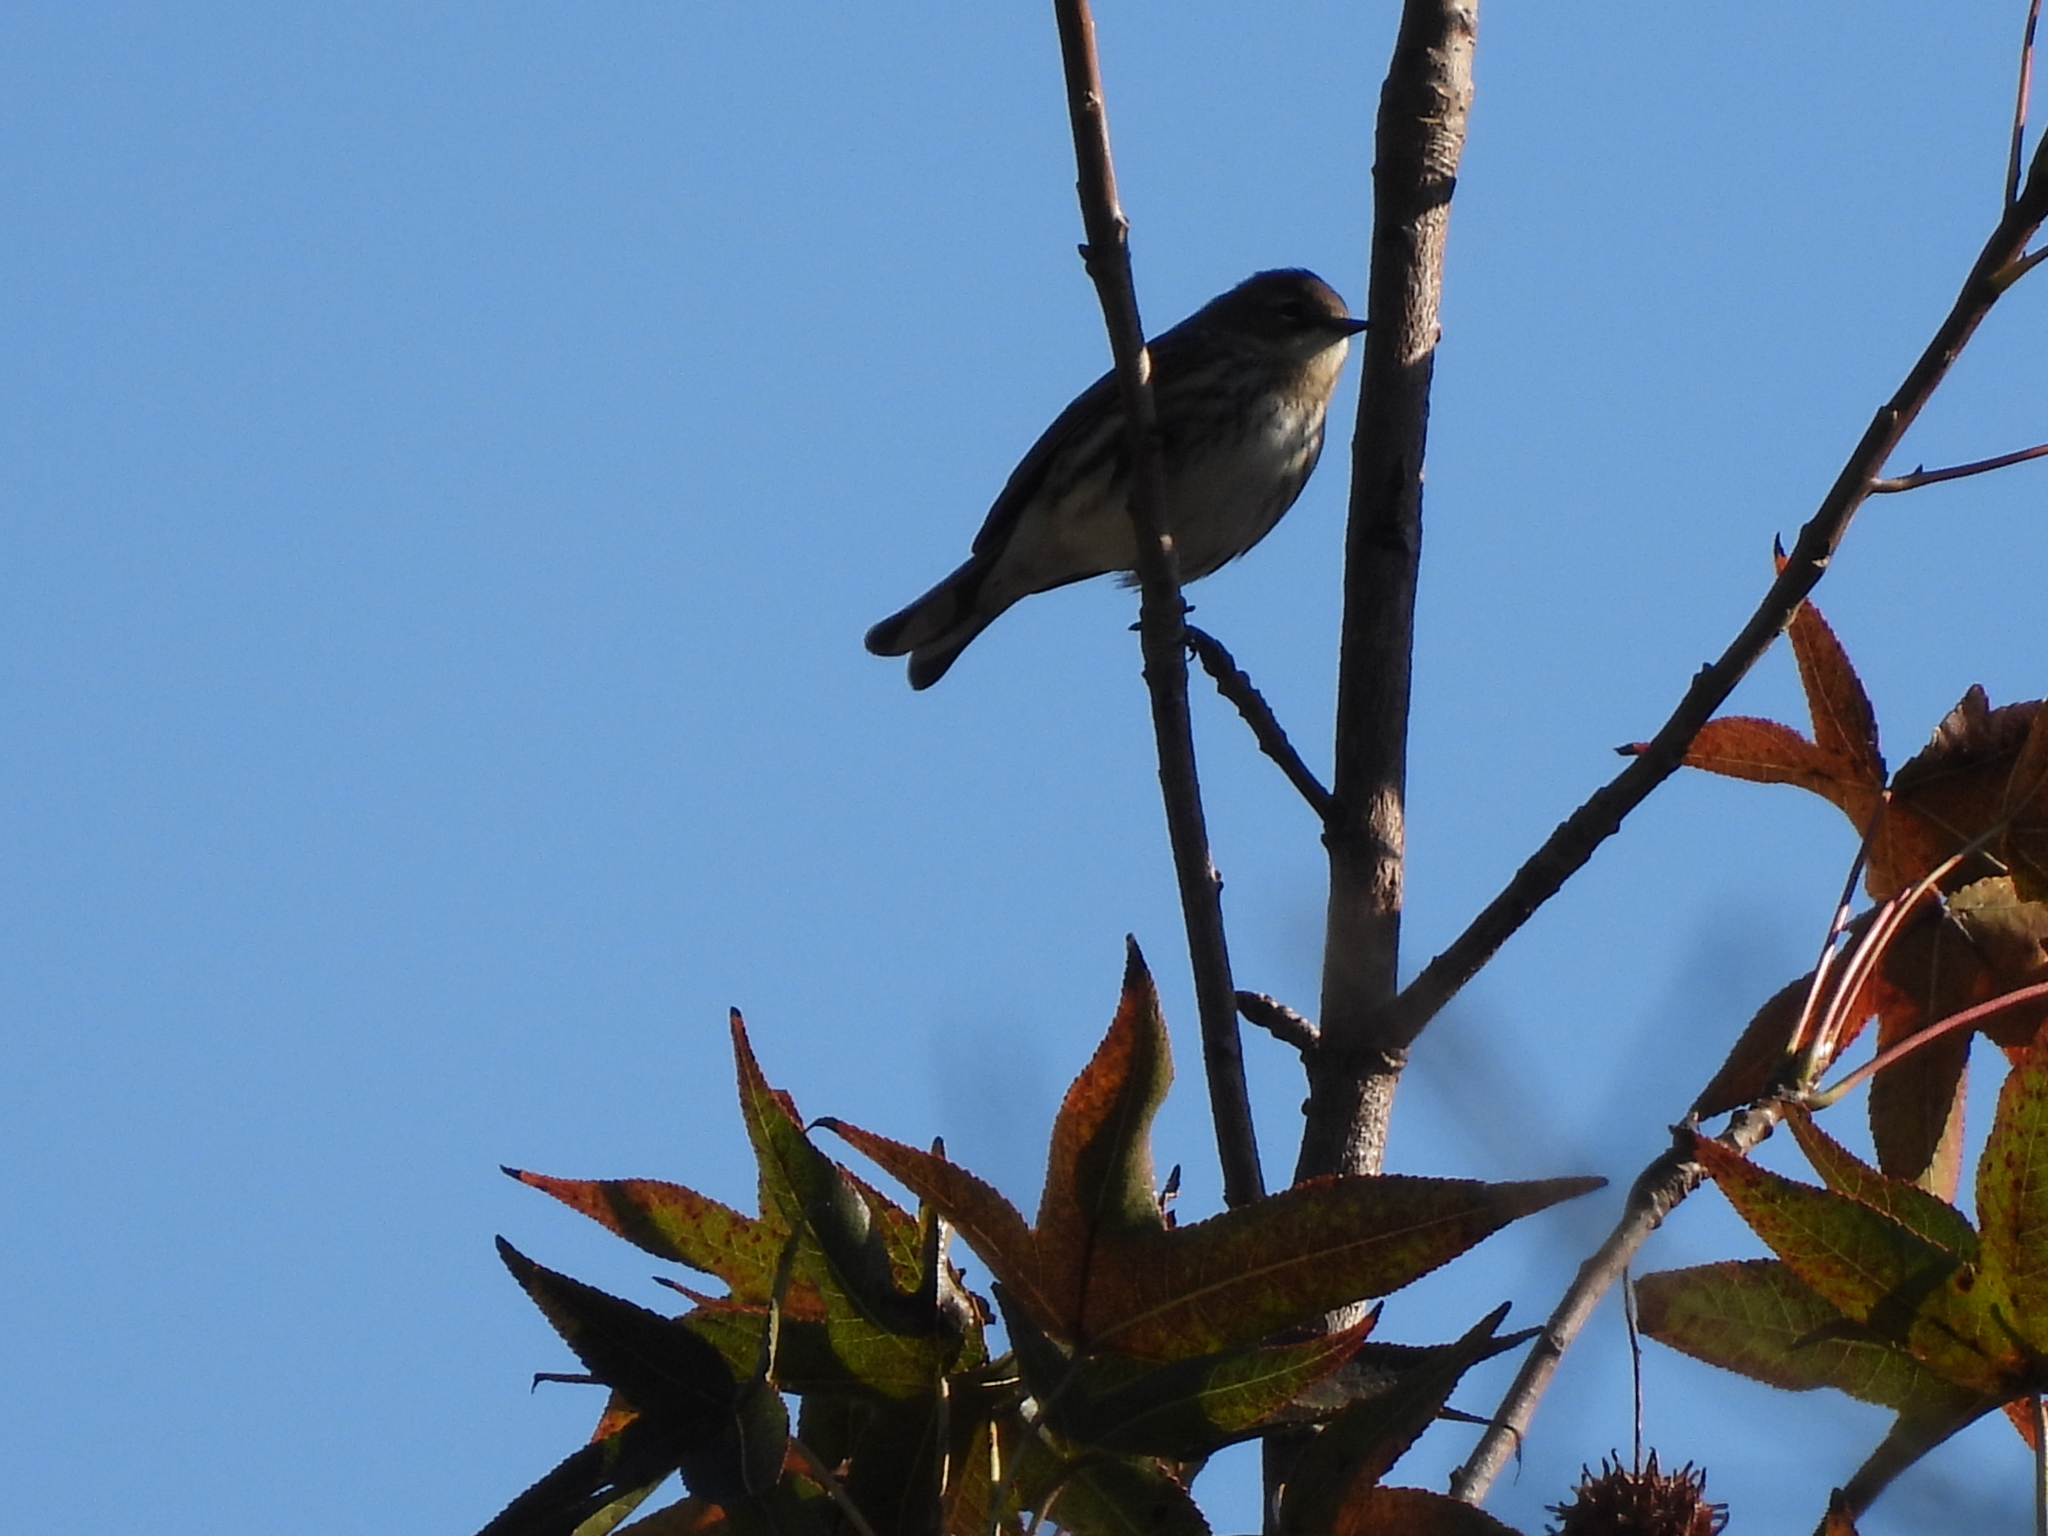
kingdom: Animalia
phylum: Chordata
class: Aves
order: Passeriformes
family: Parulidae
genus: Setophaga
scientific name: Setophaga coronata
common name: Myrtle warbler
